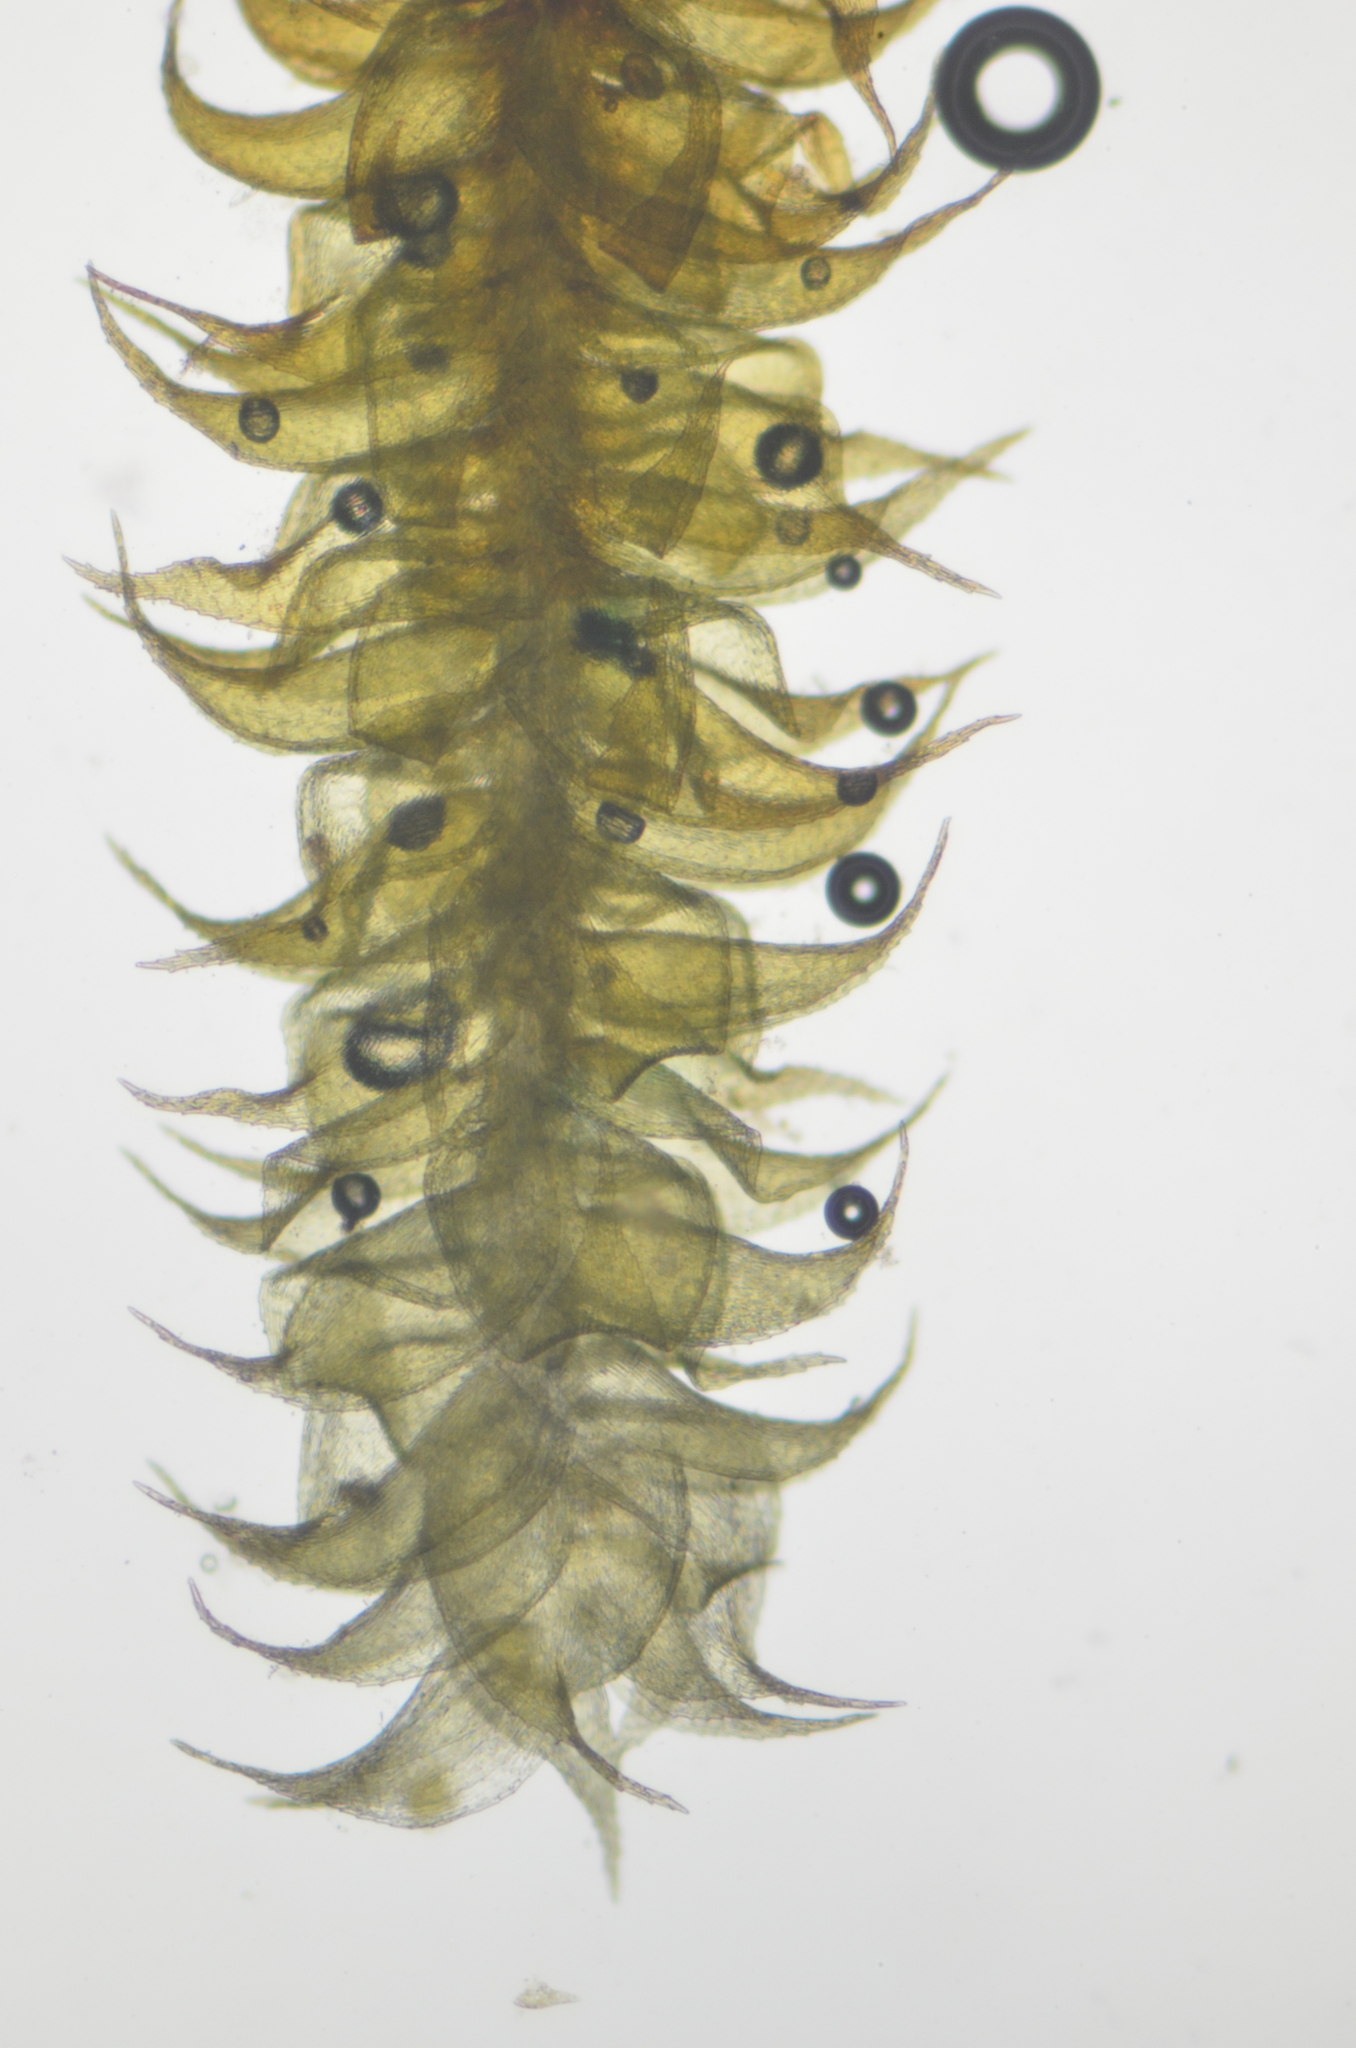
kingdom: Plantae
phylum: Bryophyta
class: Bryopsida
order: Hypnales
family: Amblystegiaceae
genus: Campylophyllum
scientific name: Campylophyllum halleri
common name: Haller's fine wet moss
